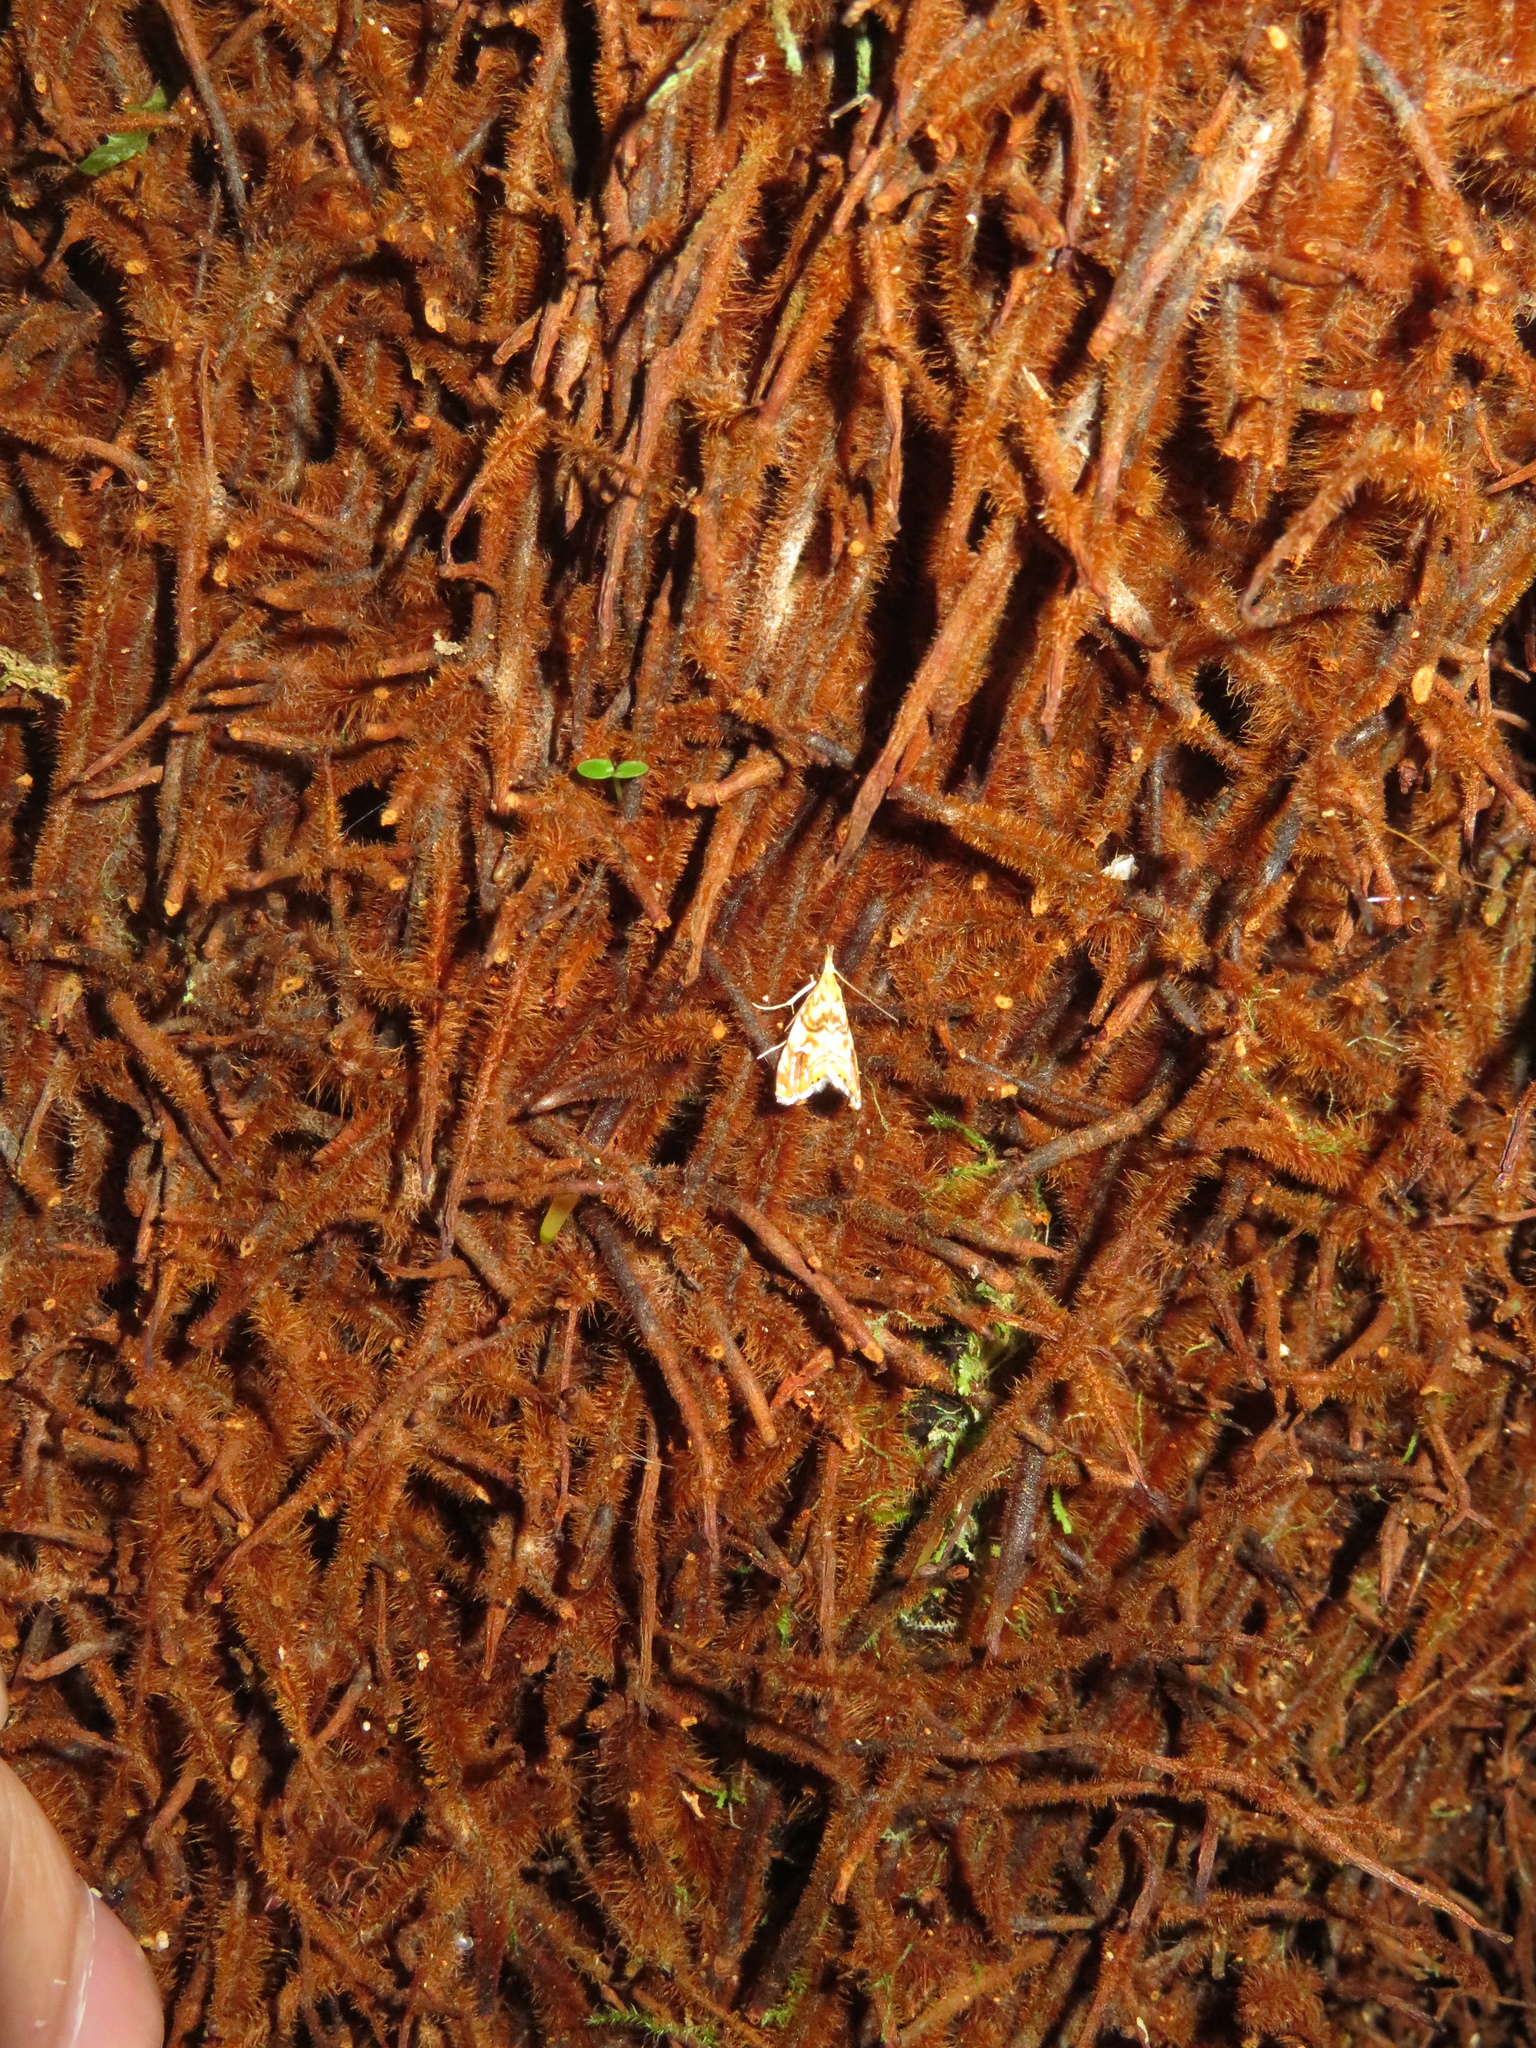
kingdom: Animalia
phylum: Arthropoda
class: Insecta
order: Lepidoptera
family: Crambidae
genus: Glaucocharis
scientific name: Glaucocharis selenaea
